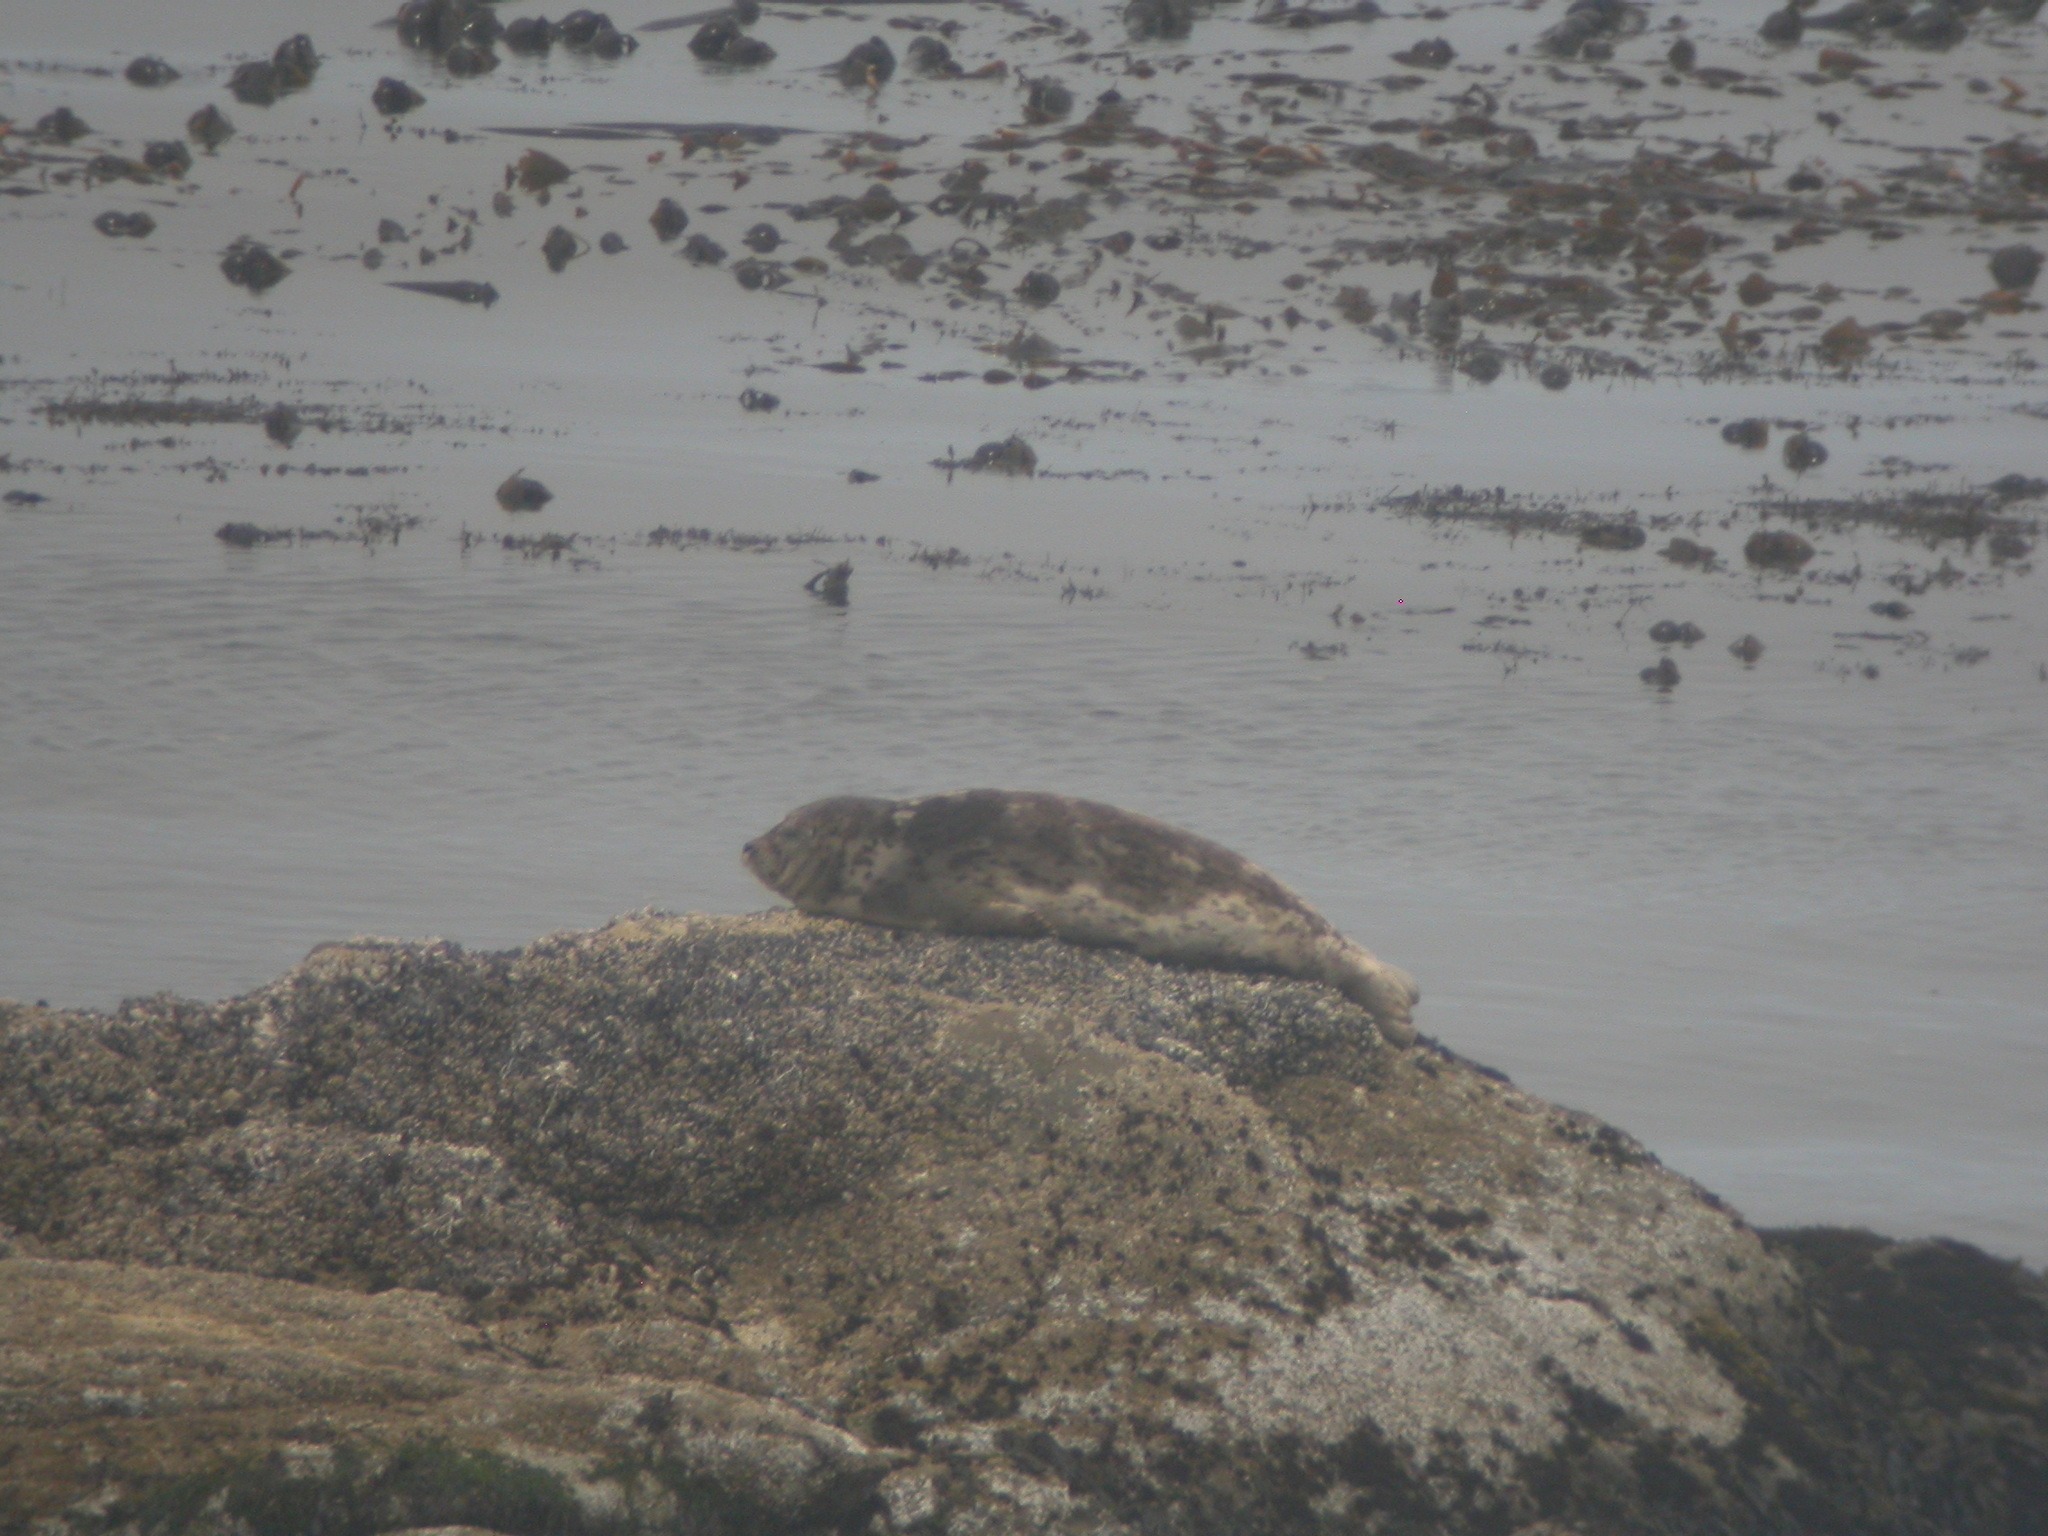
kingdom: Animalia
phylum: Chordata
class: Mammalia
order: Carnivora
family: Phocidae
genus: Phoca
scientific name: Phoca vitulina
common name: Harbor seal
